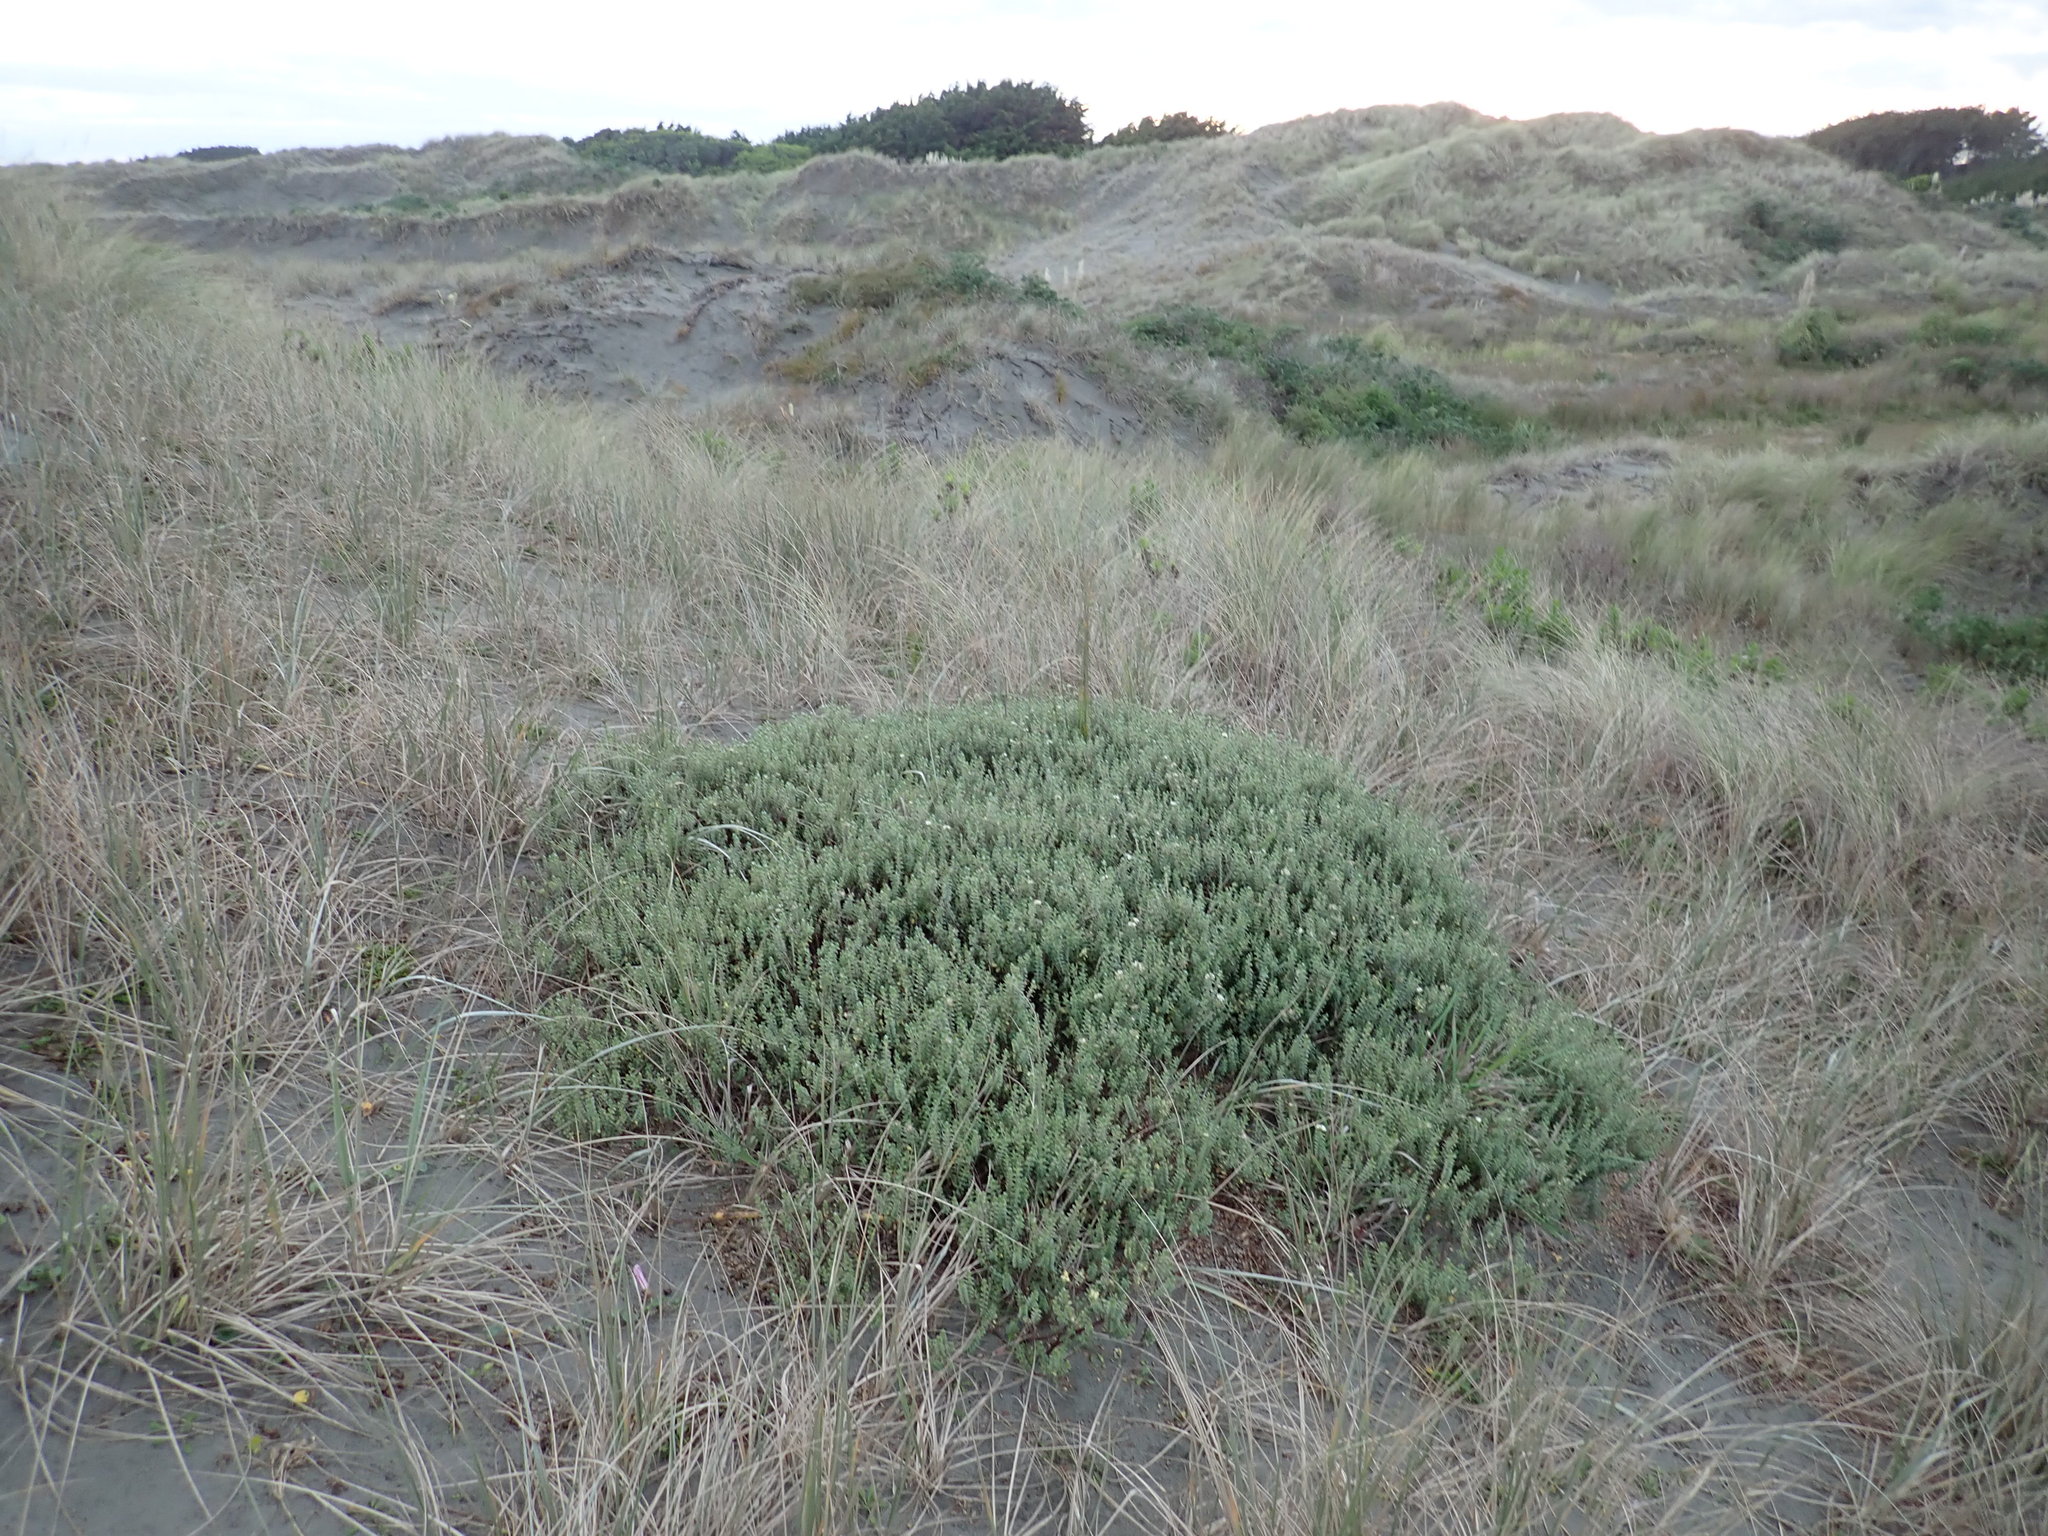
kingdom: Plantae
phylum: Tracheophyta
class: Magnoliopsida
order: Malvales
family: Thymelaeaceae
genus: Pimelea
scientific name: Pimelea villosa
